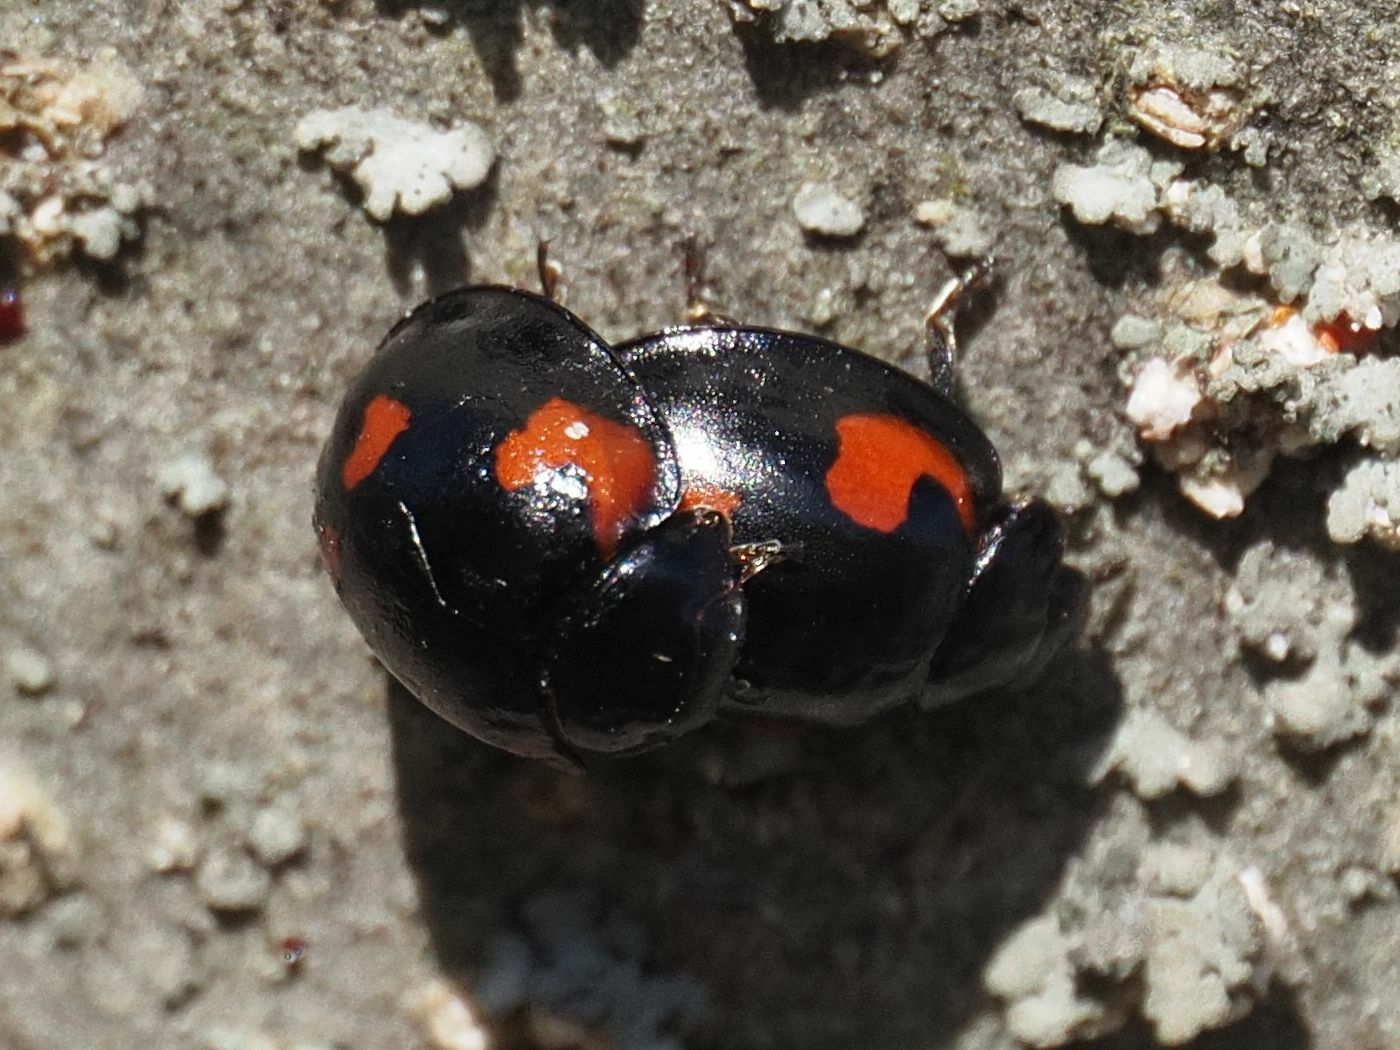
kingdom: Animalia
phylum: Arthropoda
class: Insecta
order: Coleoptera
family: Coccinellidae
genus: Brumus
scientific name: Brumus quadripustulatus
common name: Ladybird beetle
